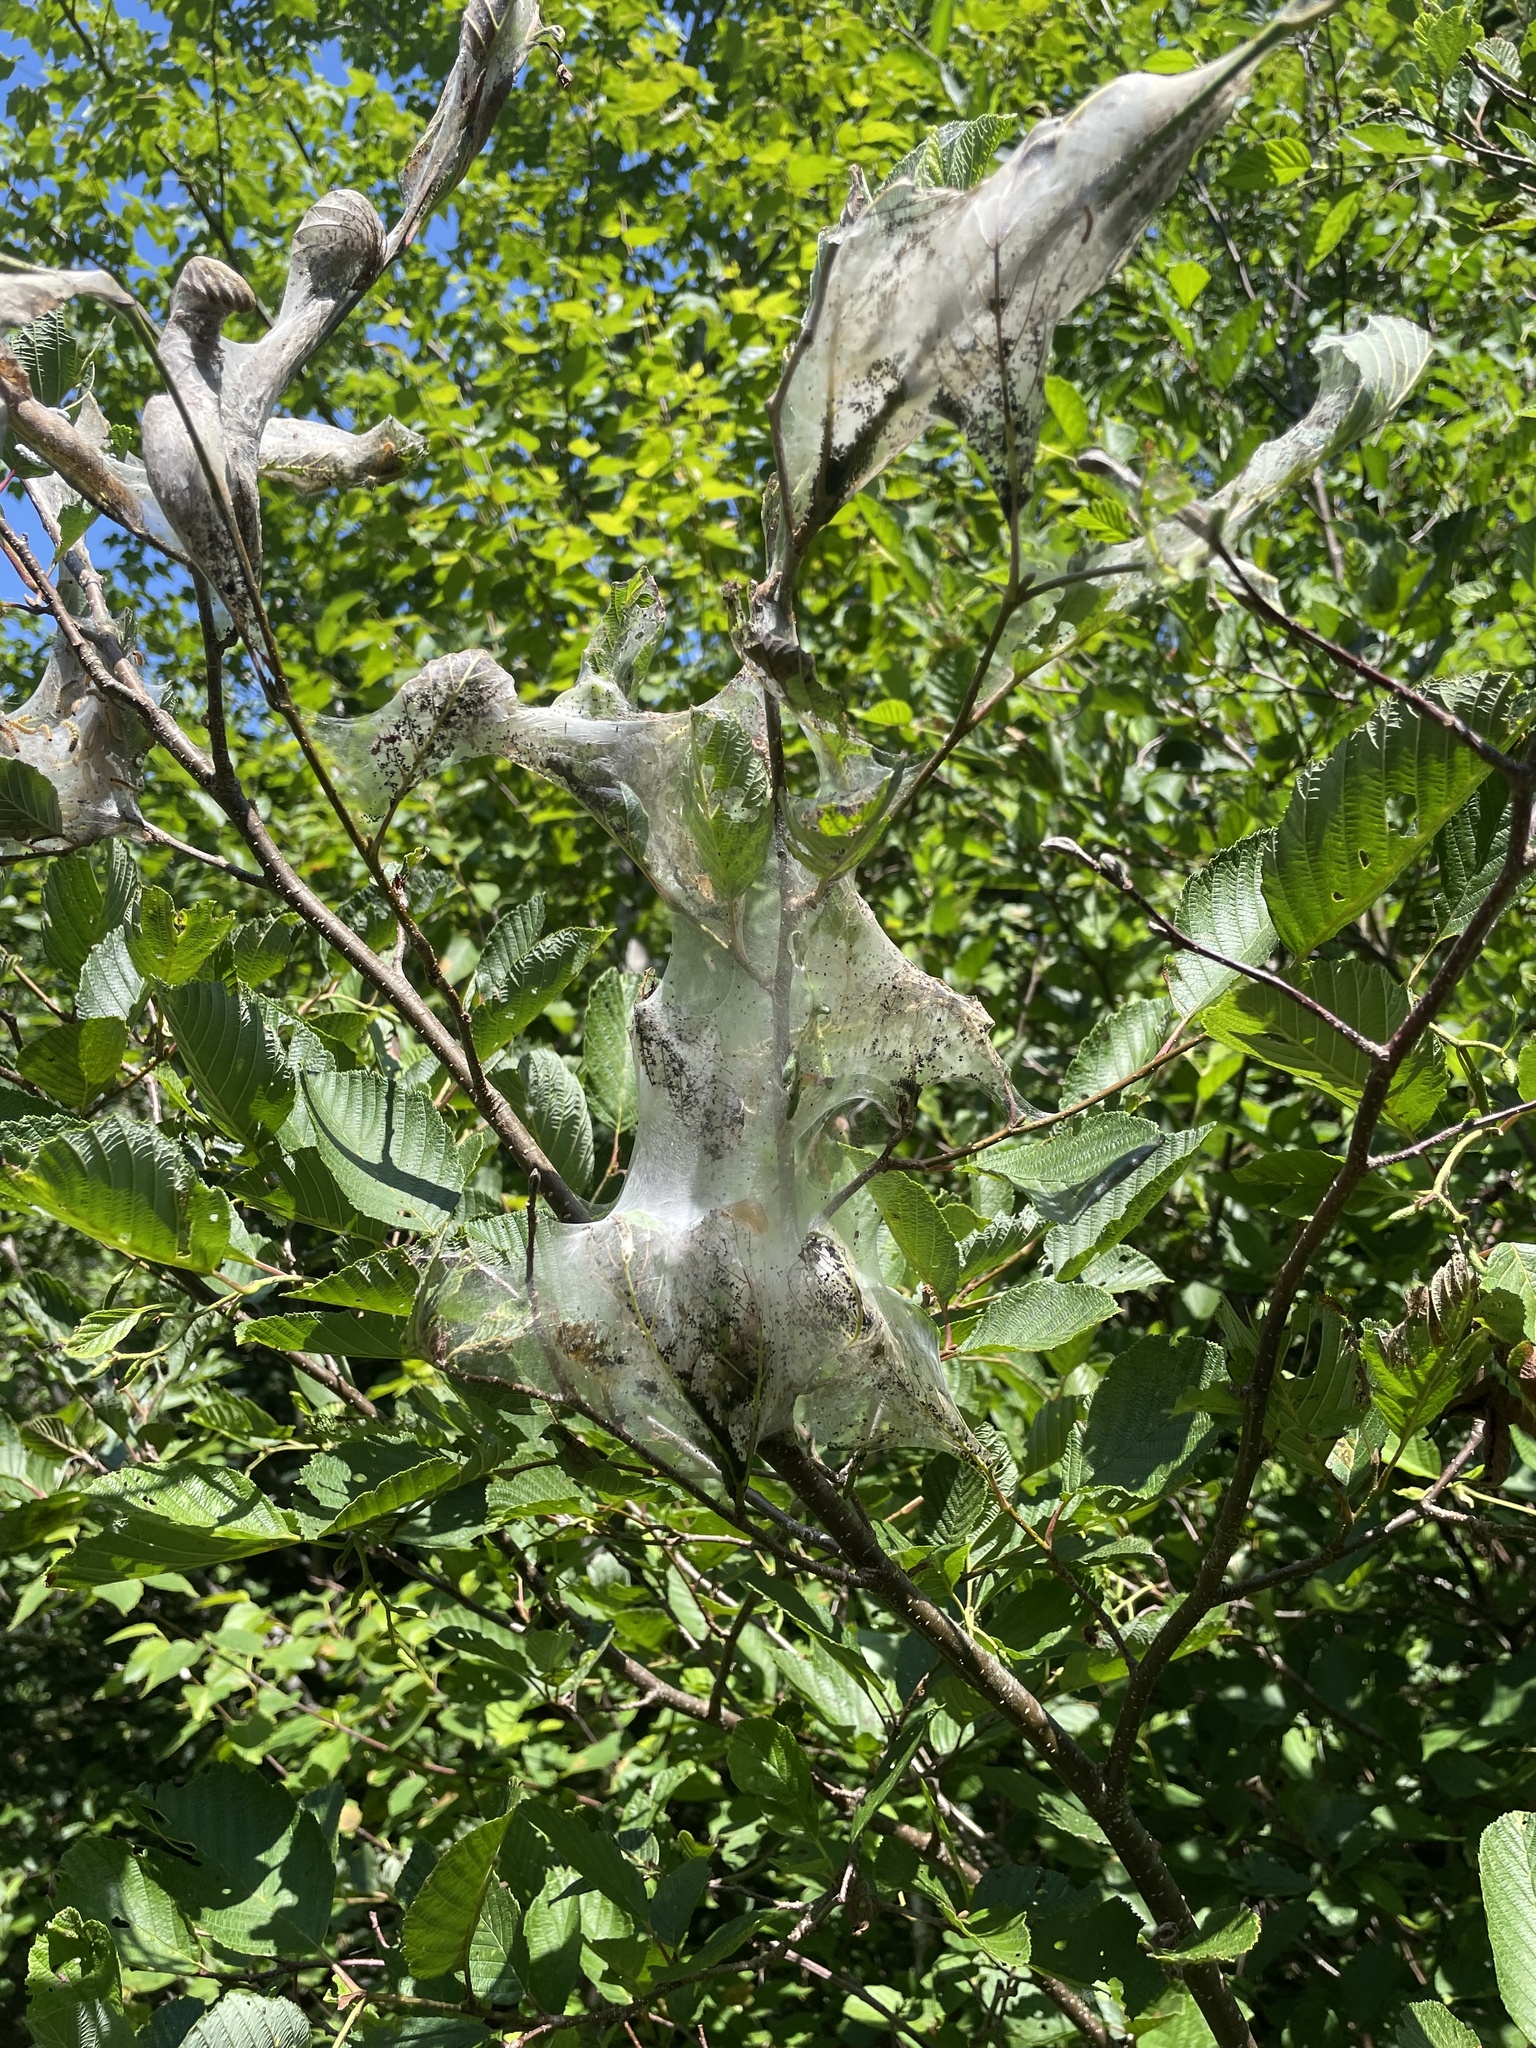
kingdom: Animalia
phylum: Arthropoda
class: Insecta
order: Lepidoptera
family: Erebidae
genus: Hyphantria
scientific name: Hyphantria cunea
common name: American white moth
